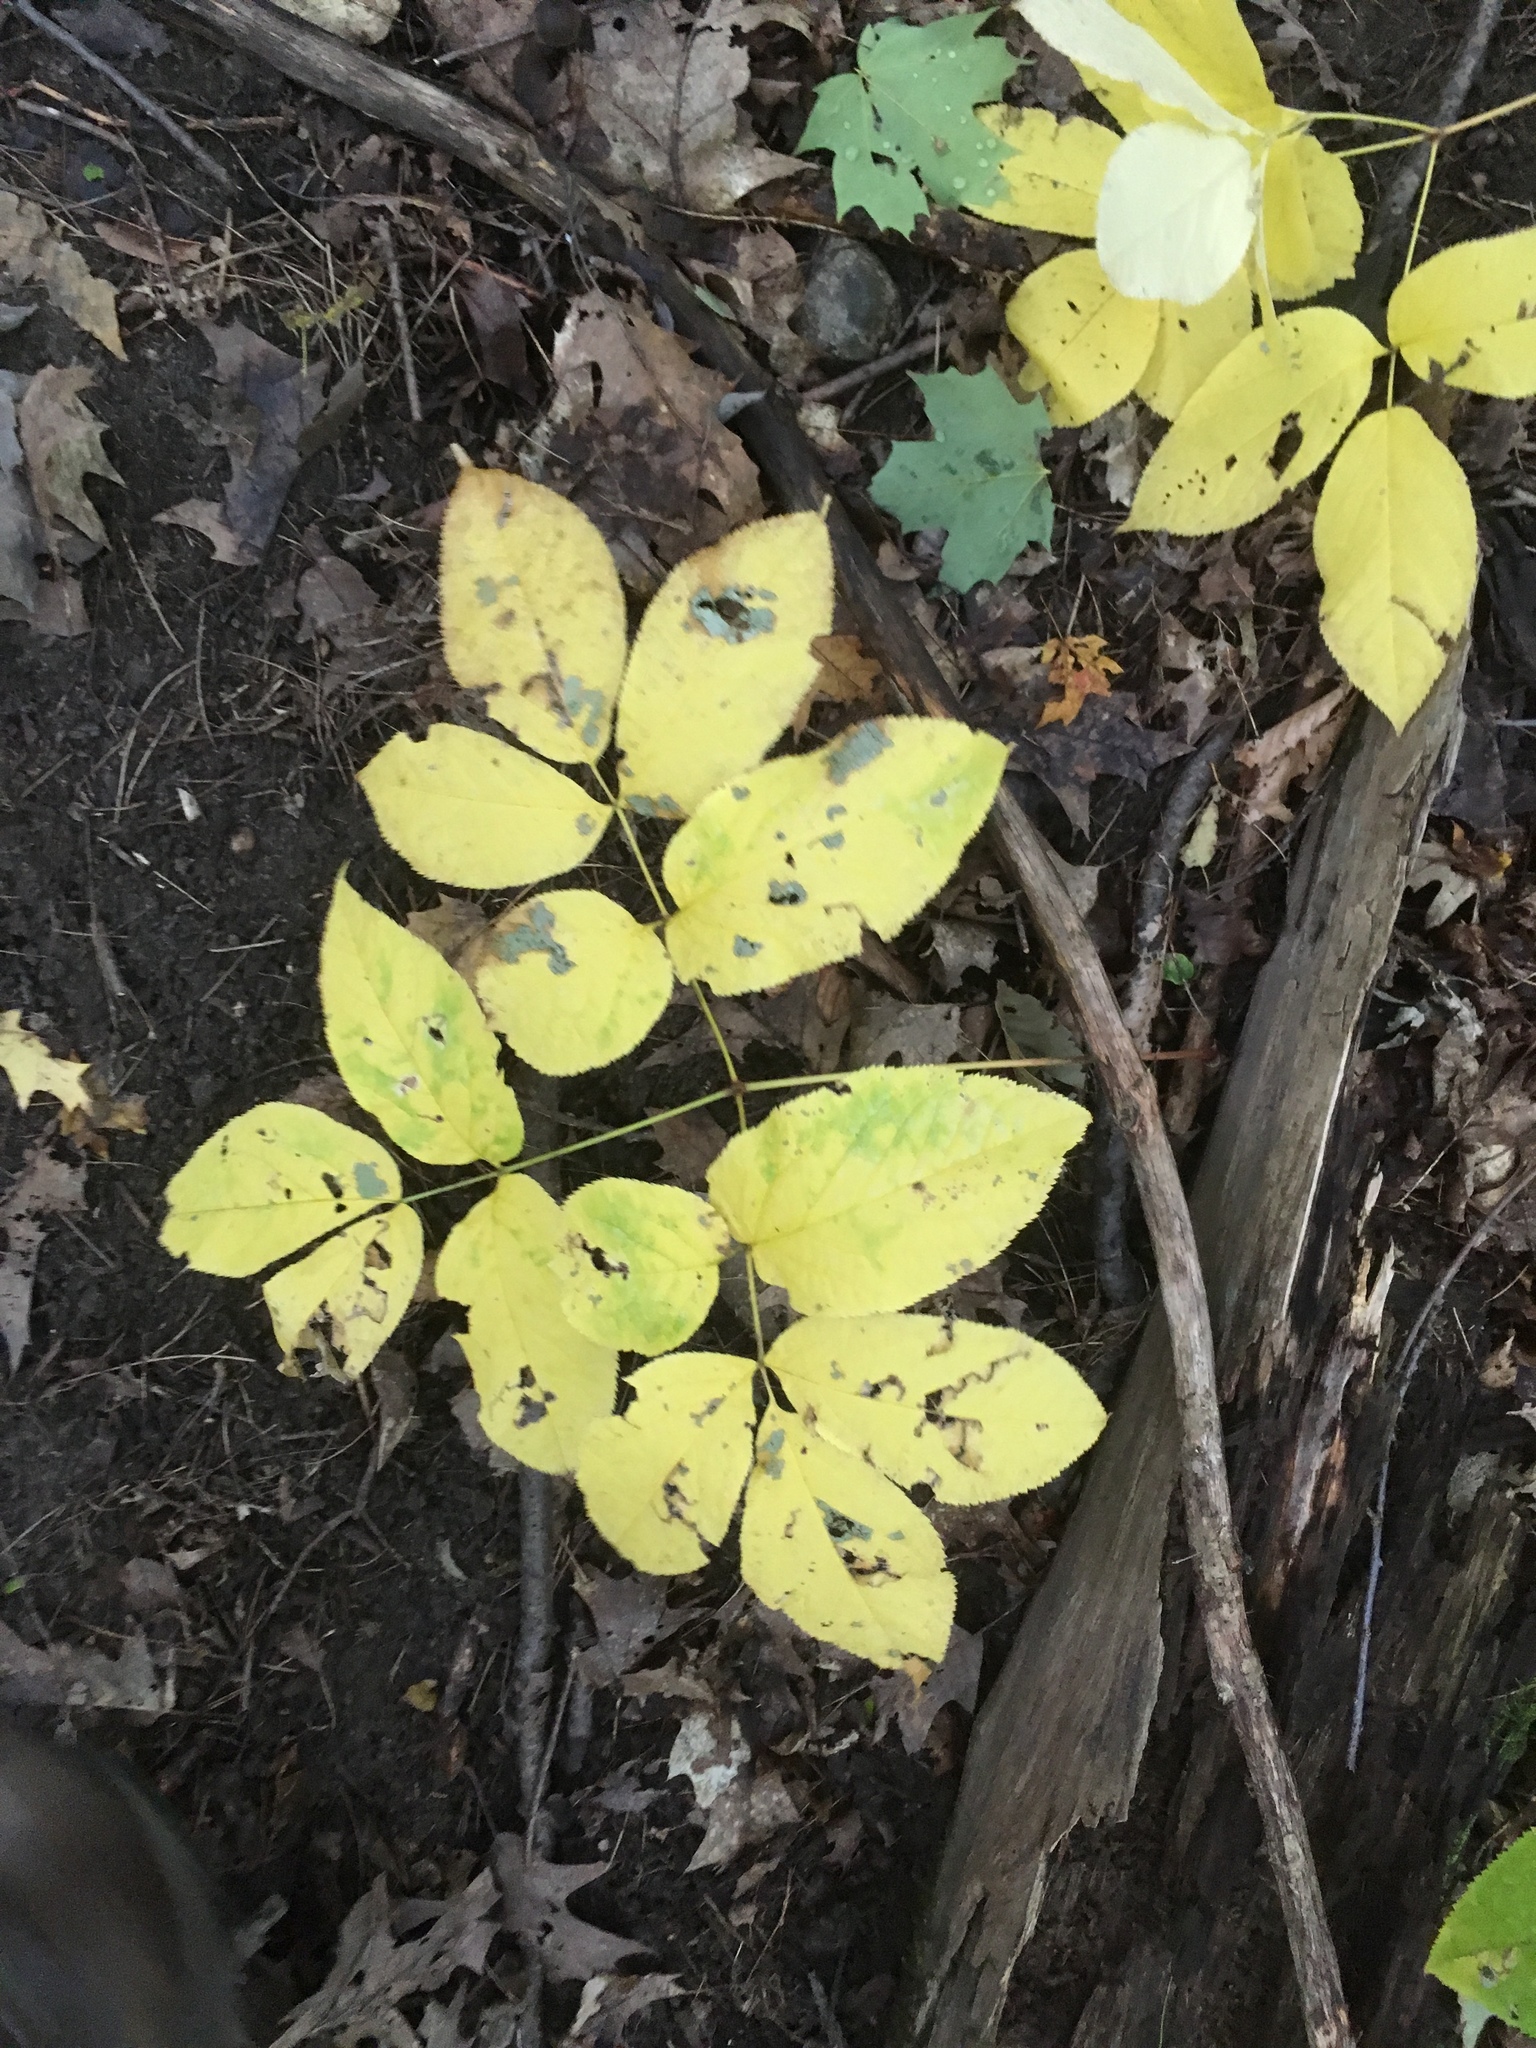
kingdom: Plantae
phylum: Tracheophyta
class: Magnoliopsida
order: Apiales
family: Araliaceae
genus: Aralia
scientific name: Aralia nudicaulis
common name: Wild sarsaparilla
